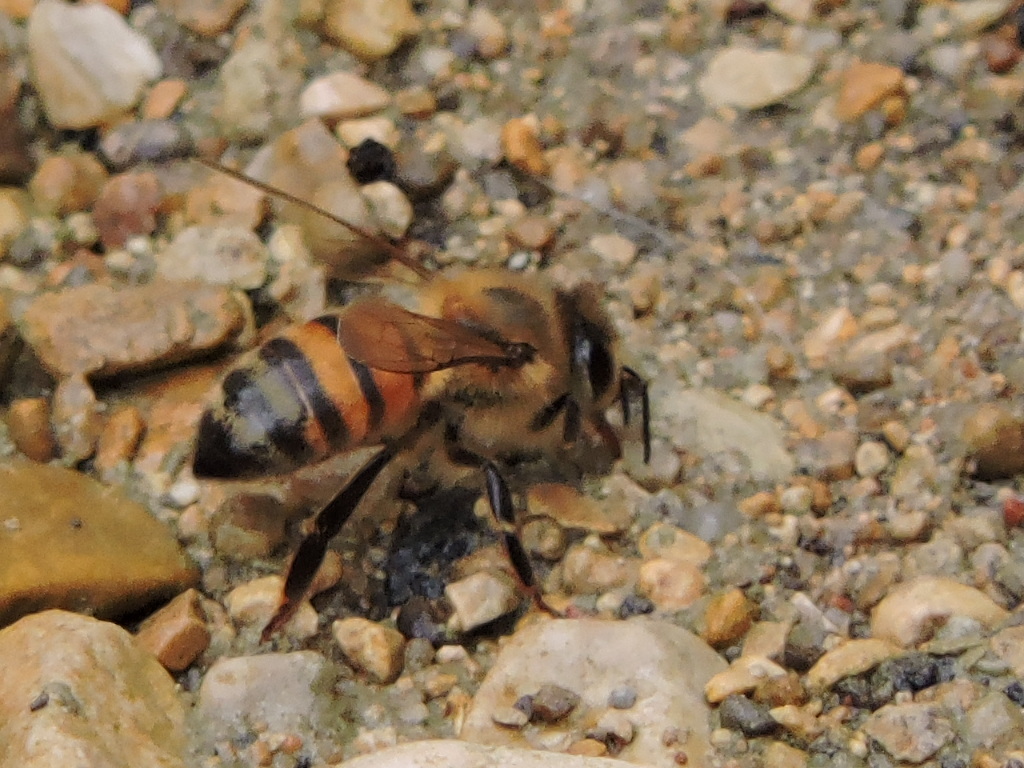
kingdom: Animalia
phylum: Arthropoda
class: Insecta
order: Hymenoptera
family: Apidae
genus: Apis
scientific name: Apis mellifera
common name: Honey bee
